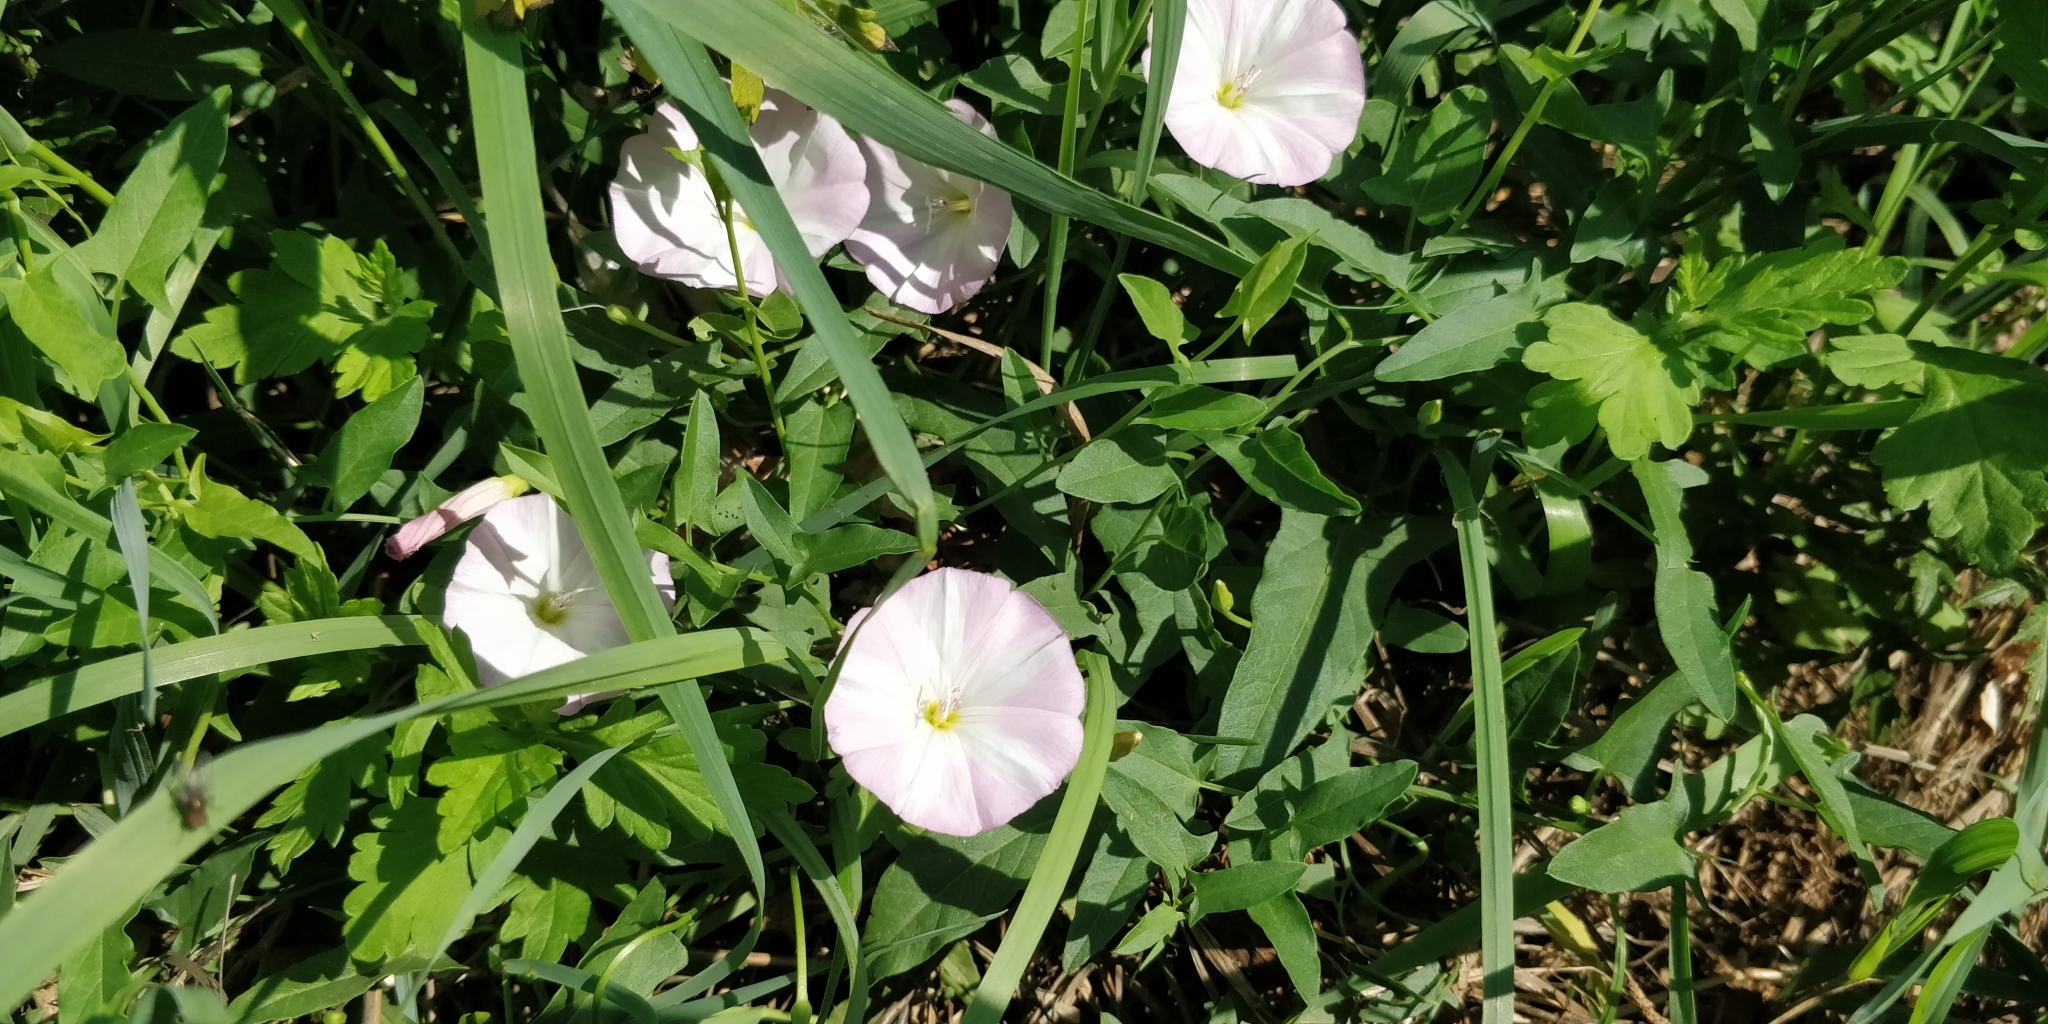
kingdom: Plantae
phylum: Tracheophyta
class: Magnoliopsida
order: Solanales
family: Convolvulaceae
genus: Convolvulus
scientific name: Convolvulus arvensis
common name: Field bindweed
